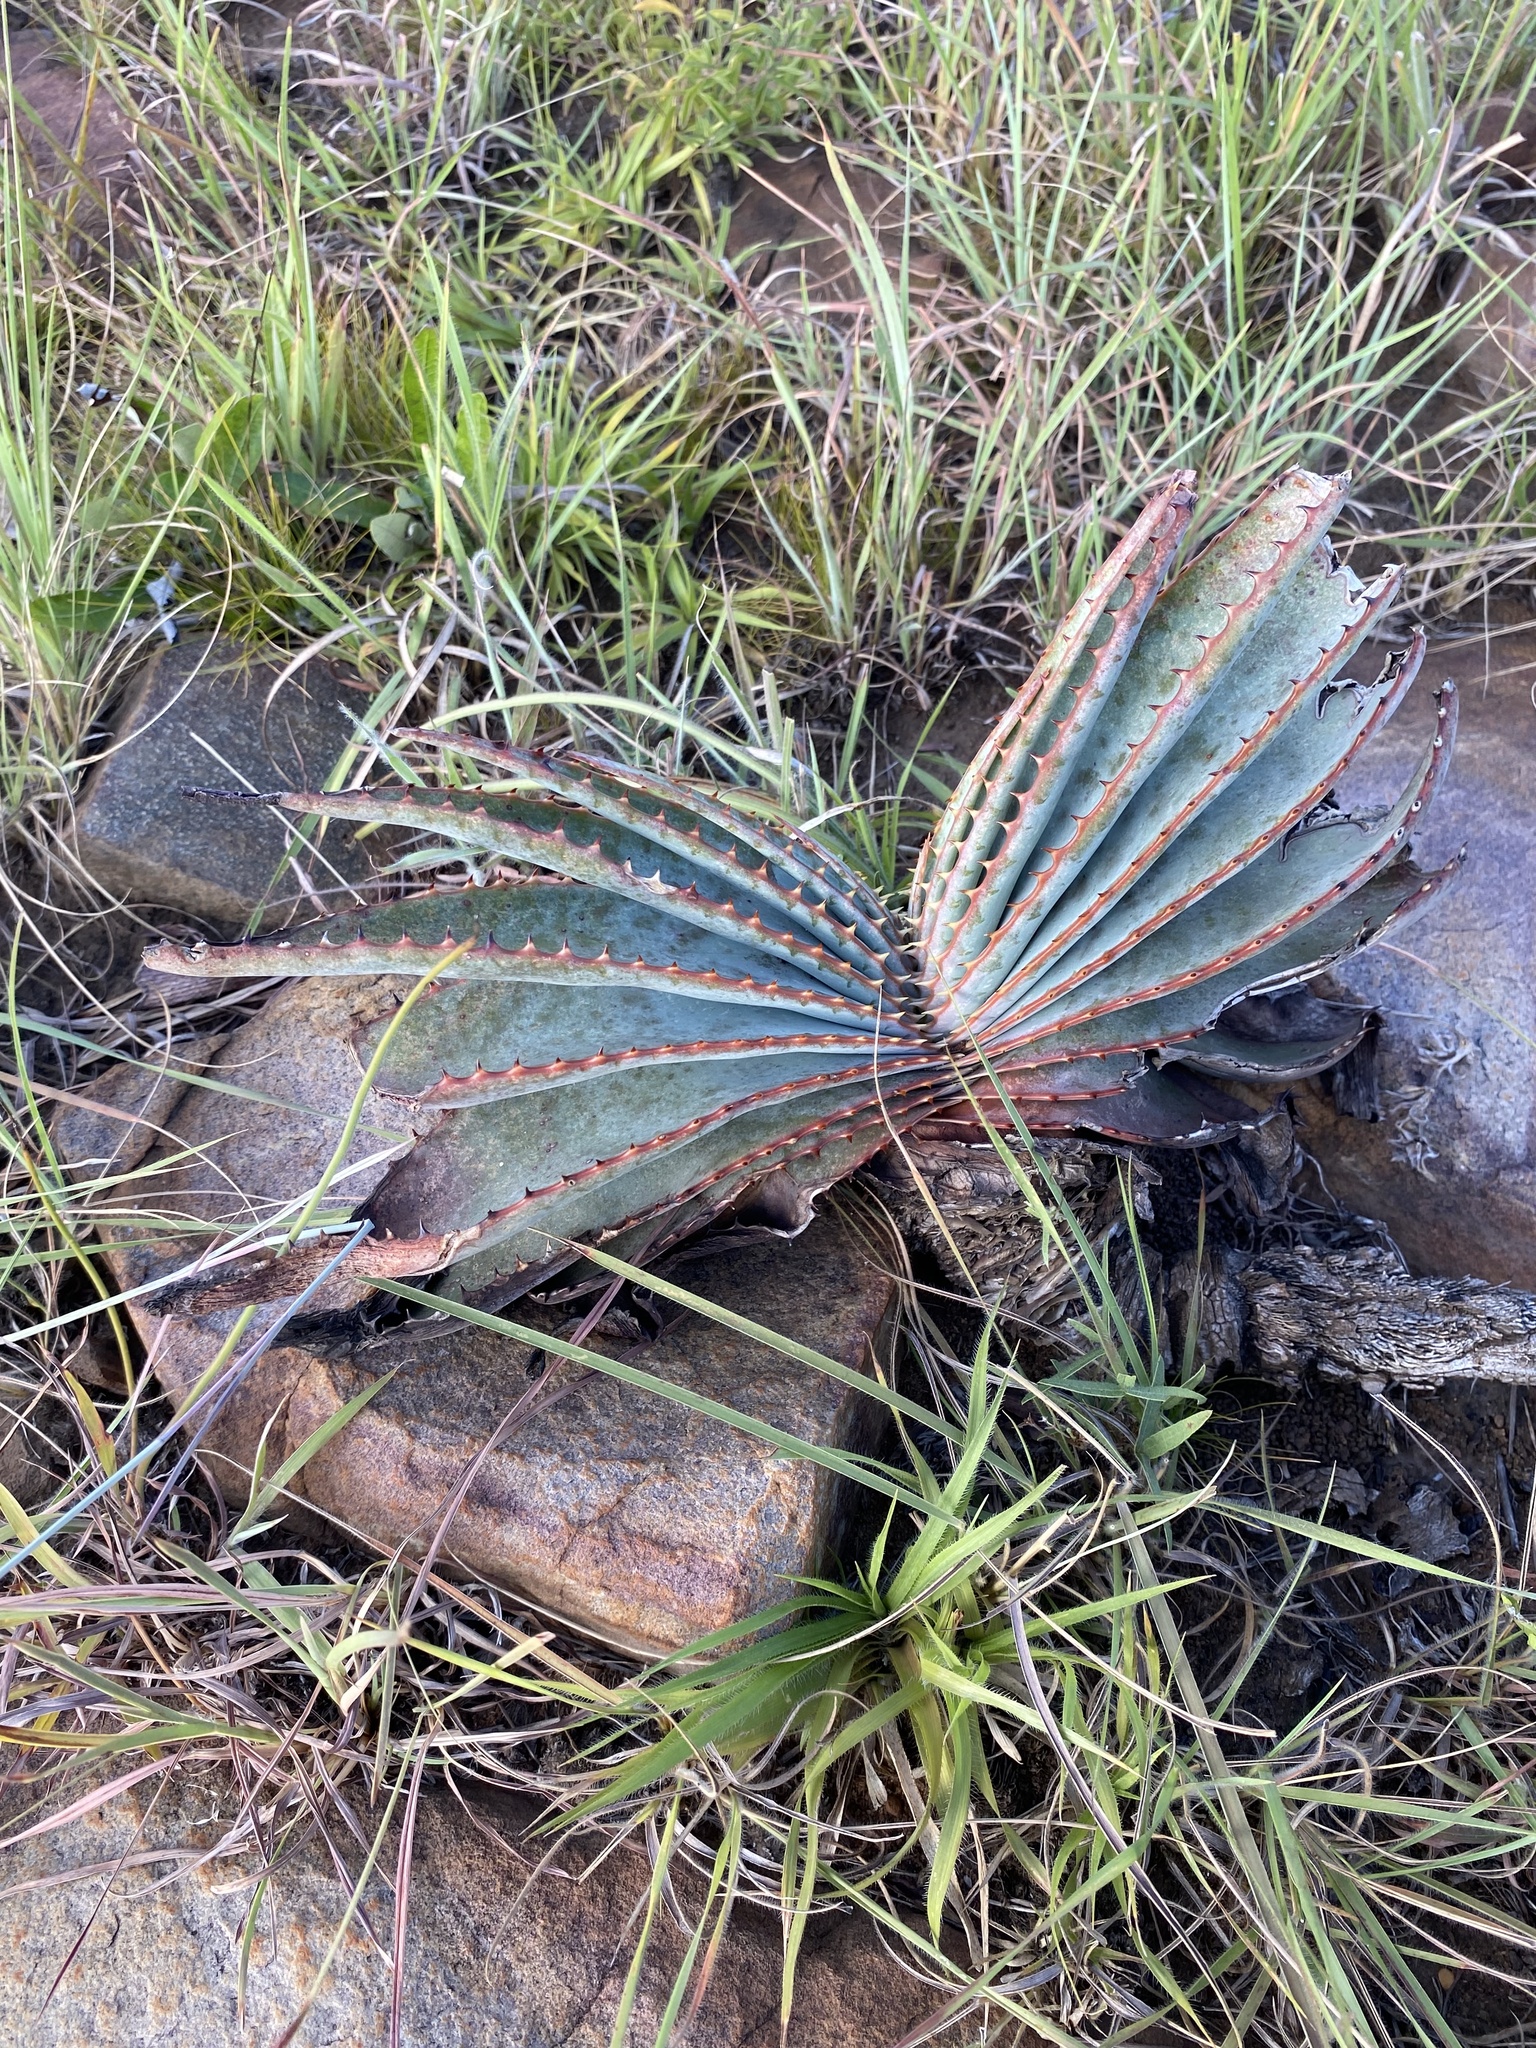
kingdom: Plantae
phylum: Tracheophyta
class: Liliopsida
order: Asparagales
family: Asphodelaceae
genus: Aloe
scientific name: Aloe suprafoliata
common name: Book aloe
